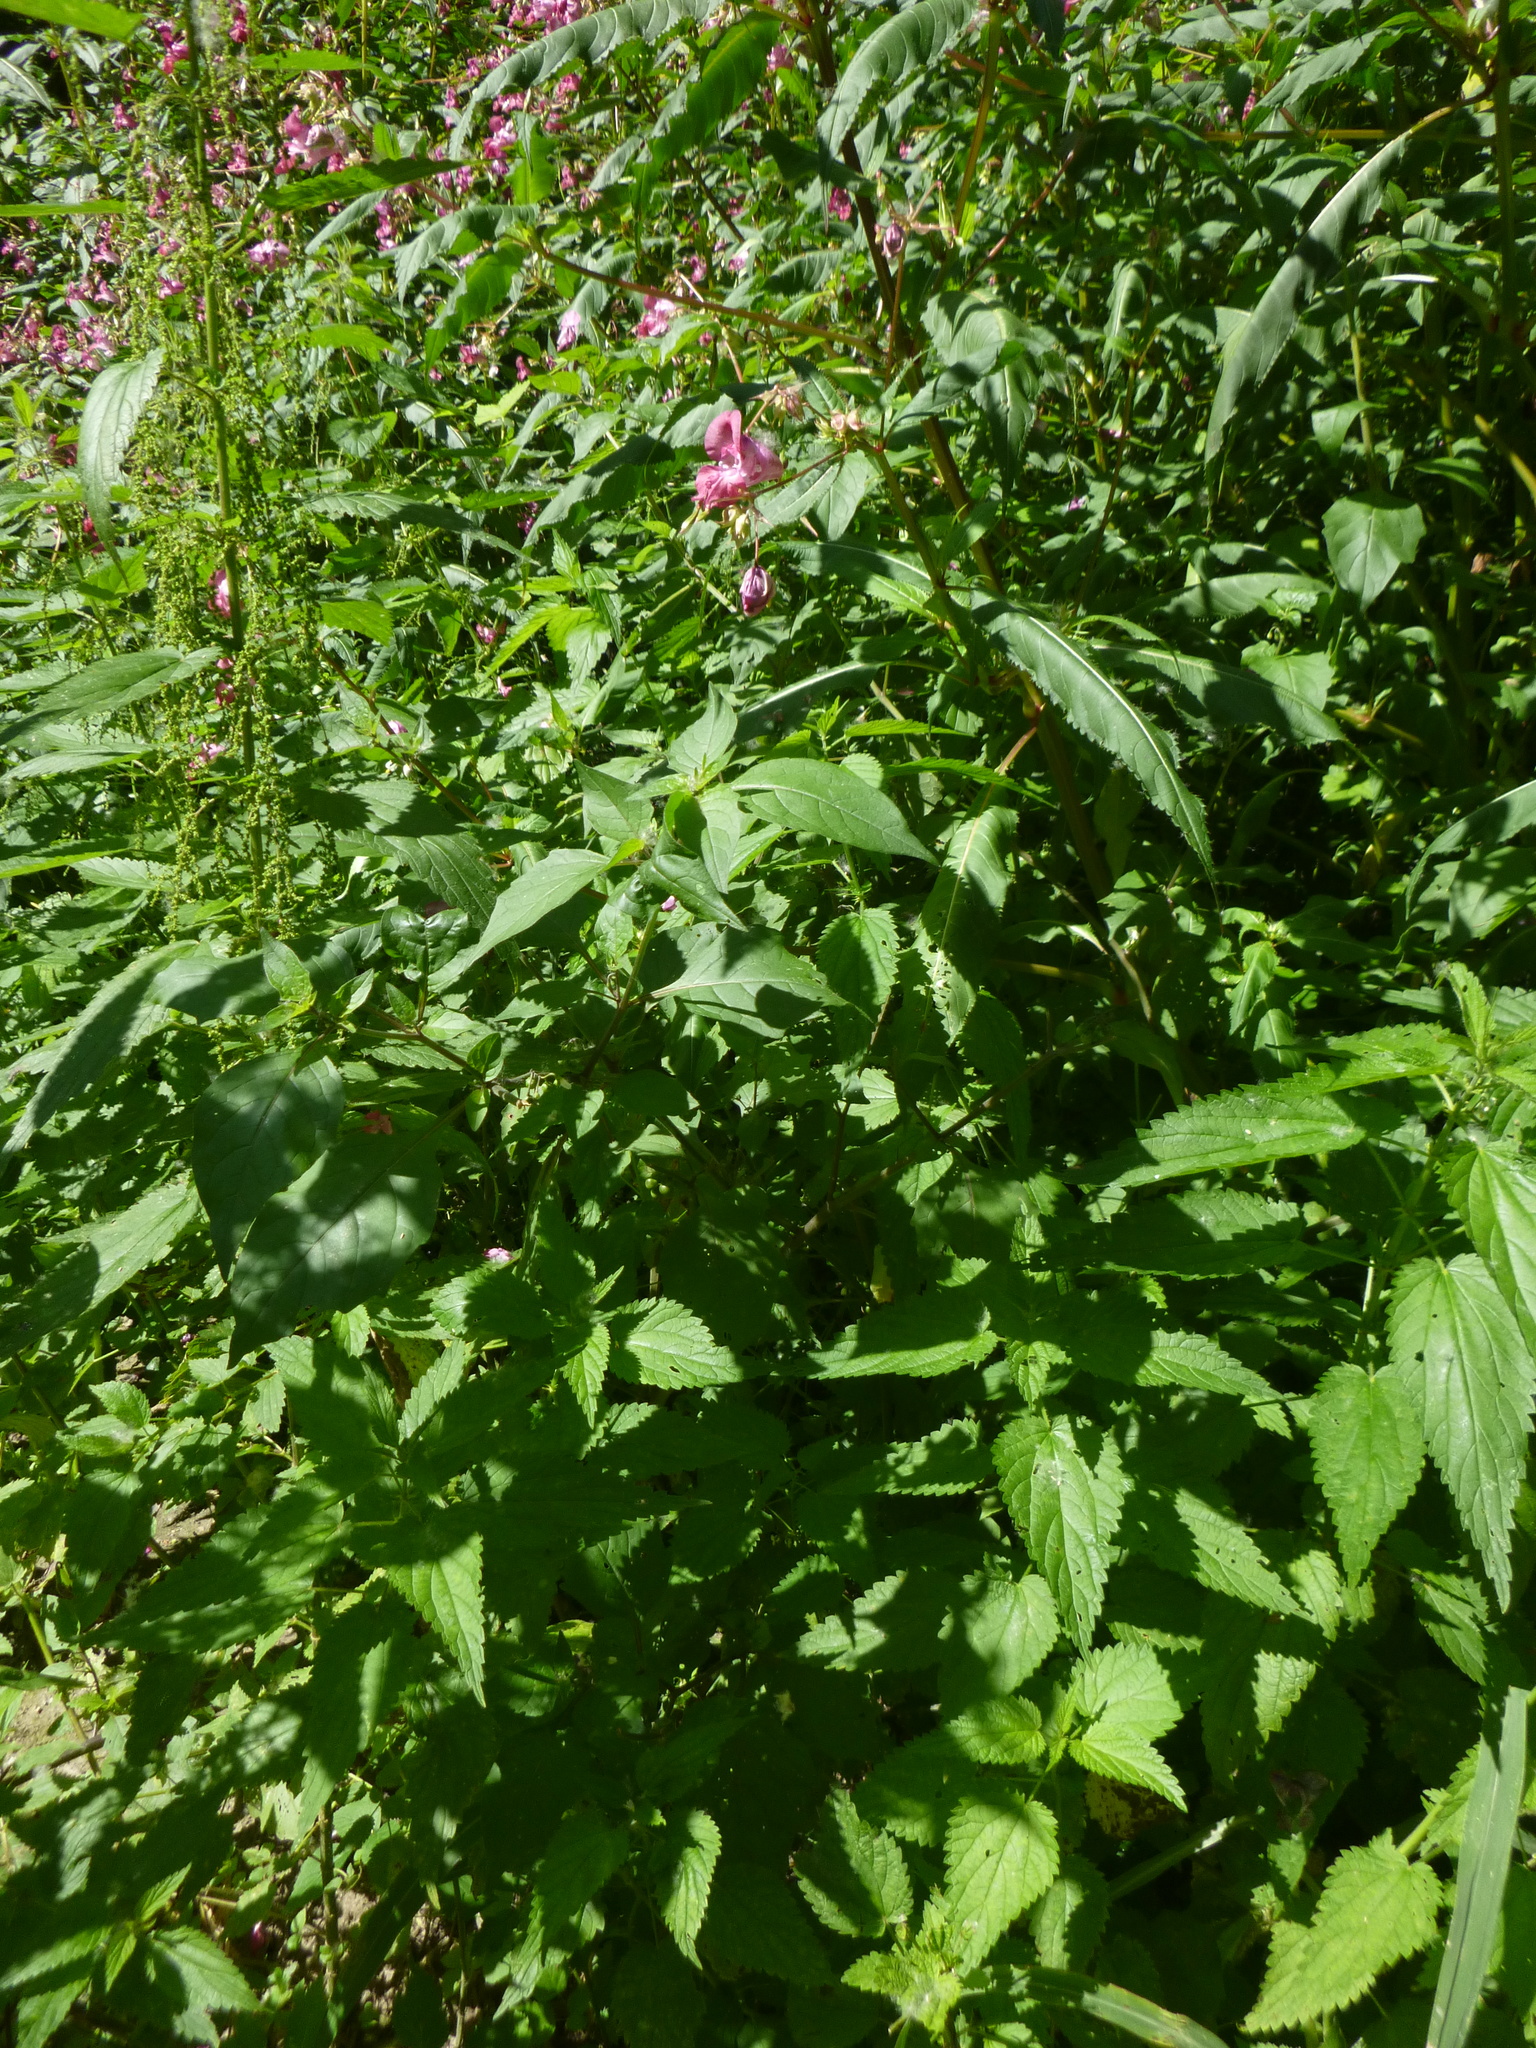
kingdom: Plantae
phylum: Tracheophyta
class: Magnoliopsida
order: Rosales
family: Urticaceae
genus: Urtica
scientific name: Urtica dioica
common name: Common nettle
